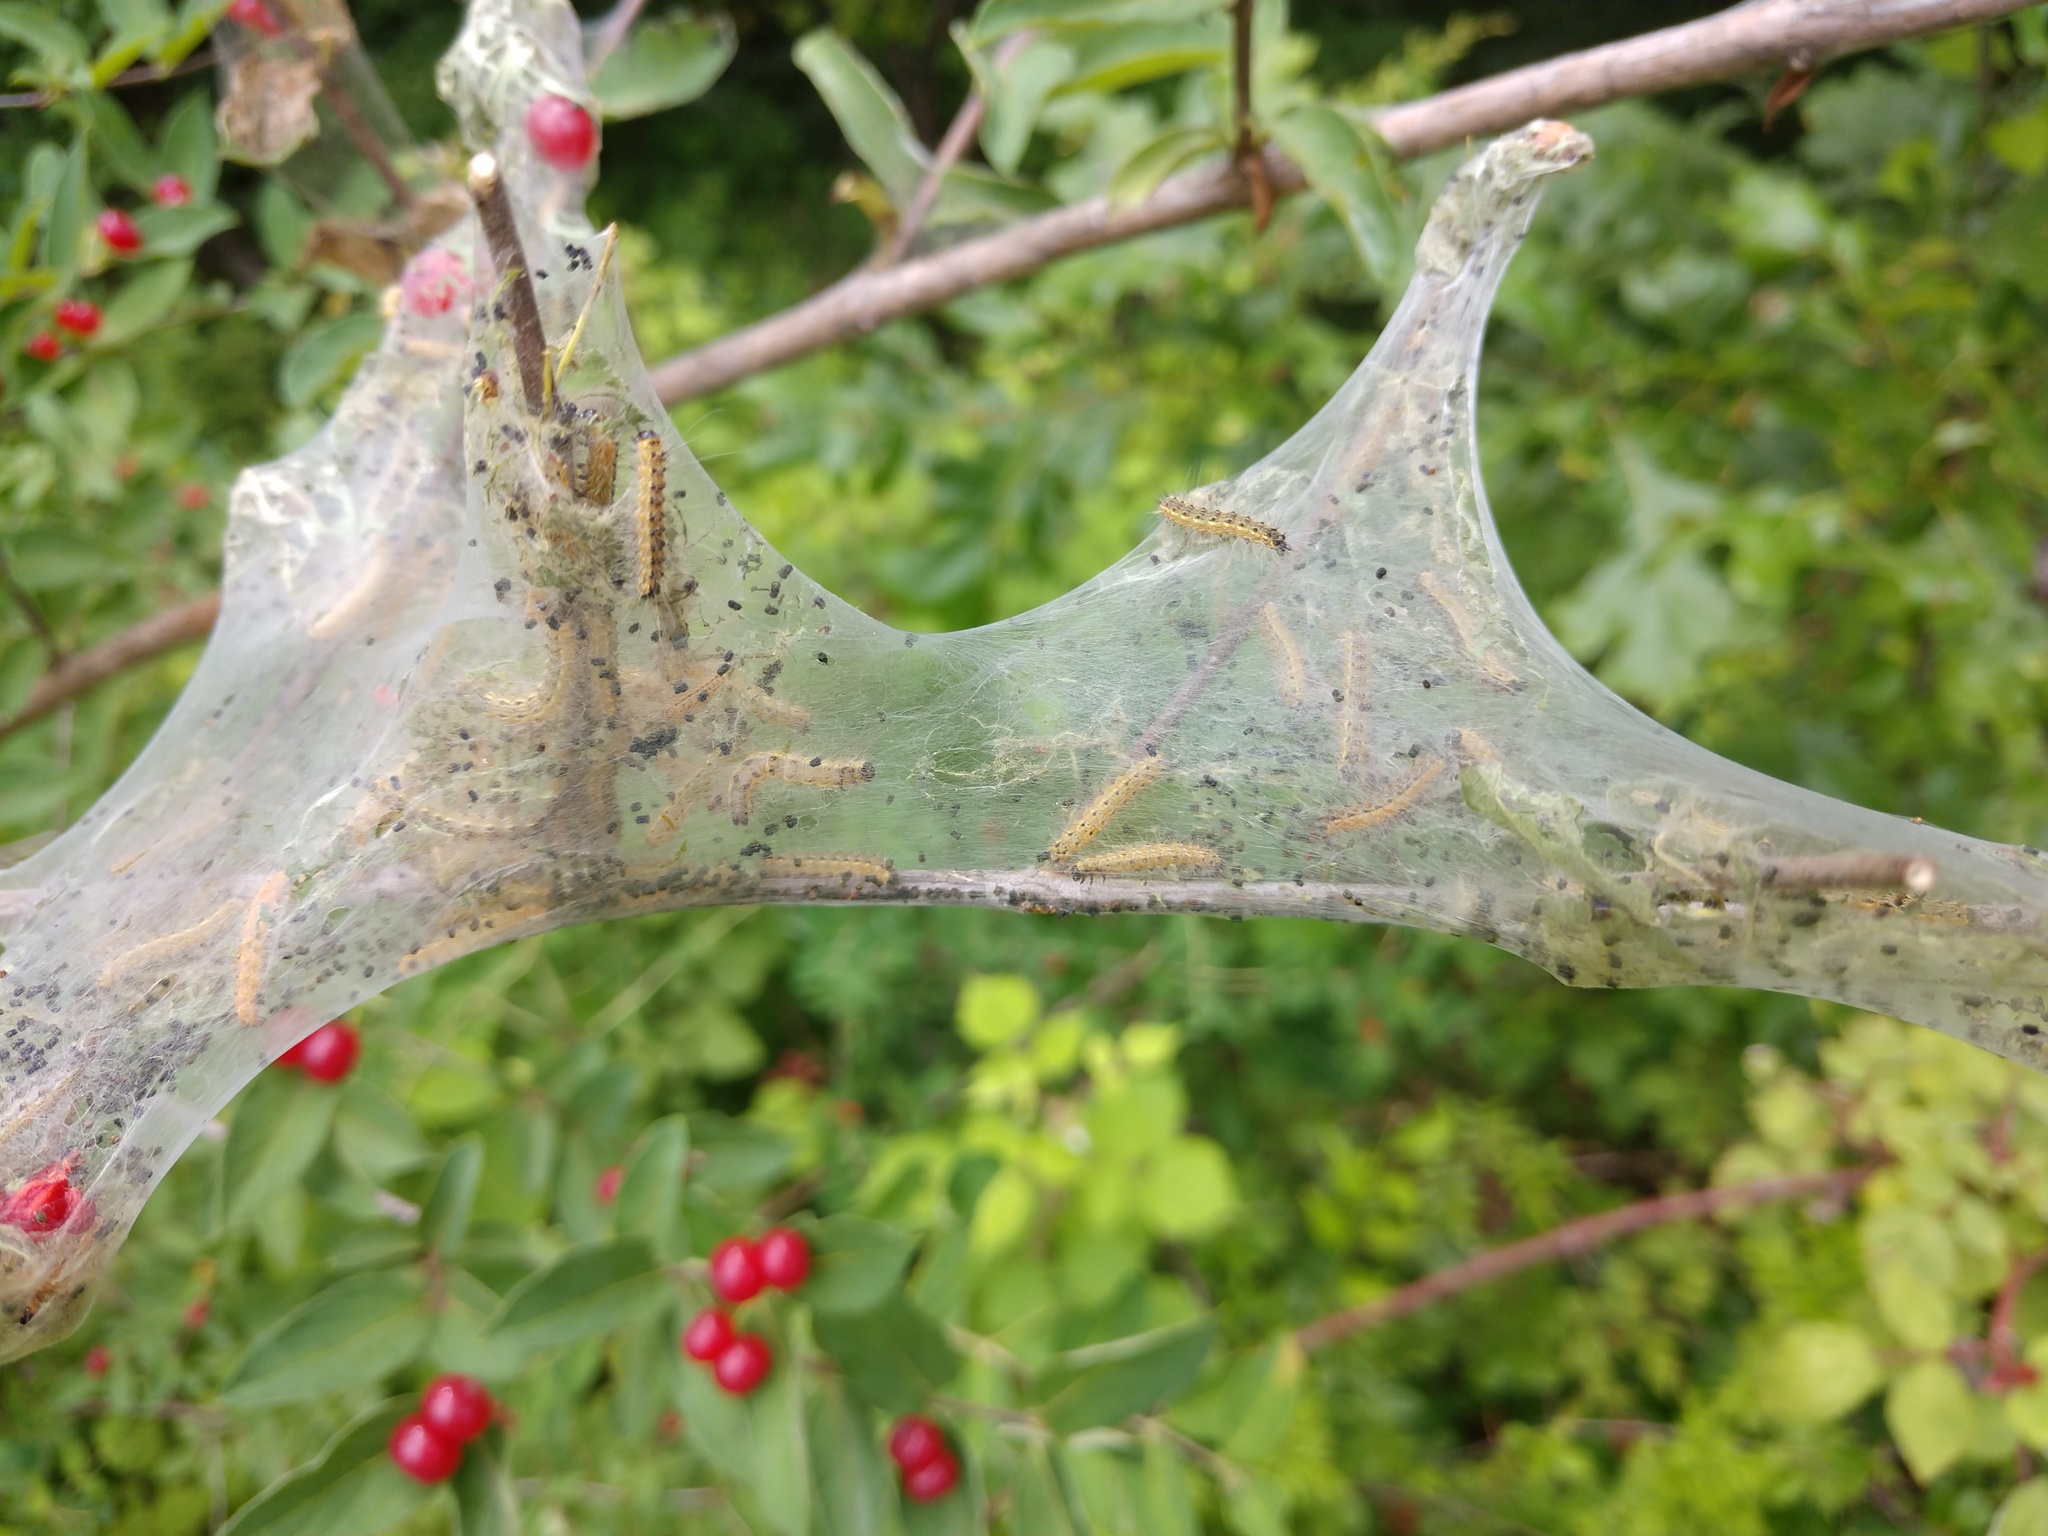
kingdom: Animalia
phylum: Arthropoda
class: Insecta
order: Lepidoptera
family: Erebidae
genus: Hyphantria
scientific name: Hyphantria cunea
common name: American white moth
